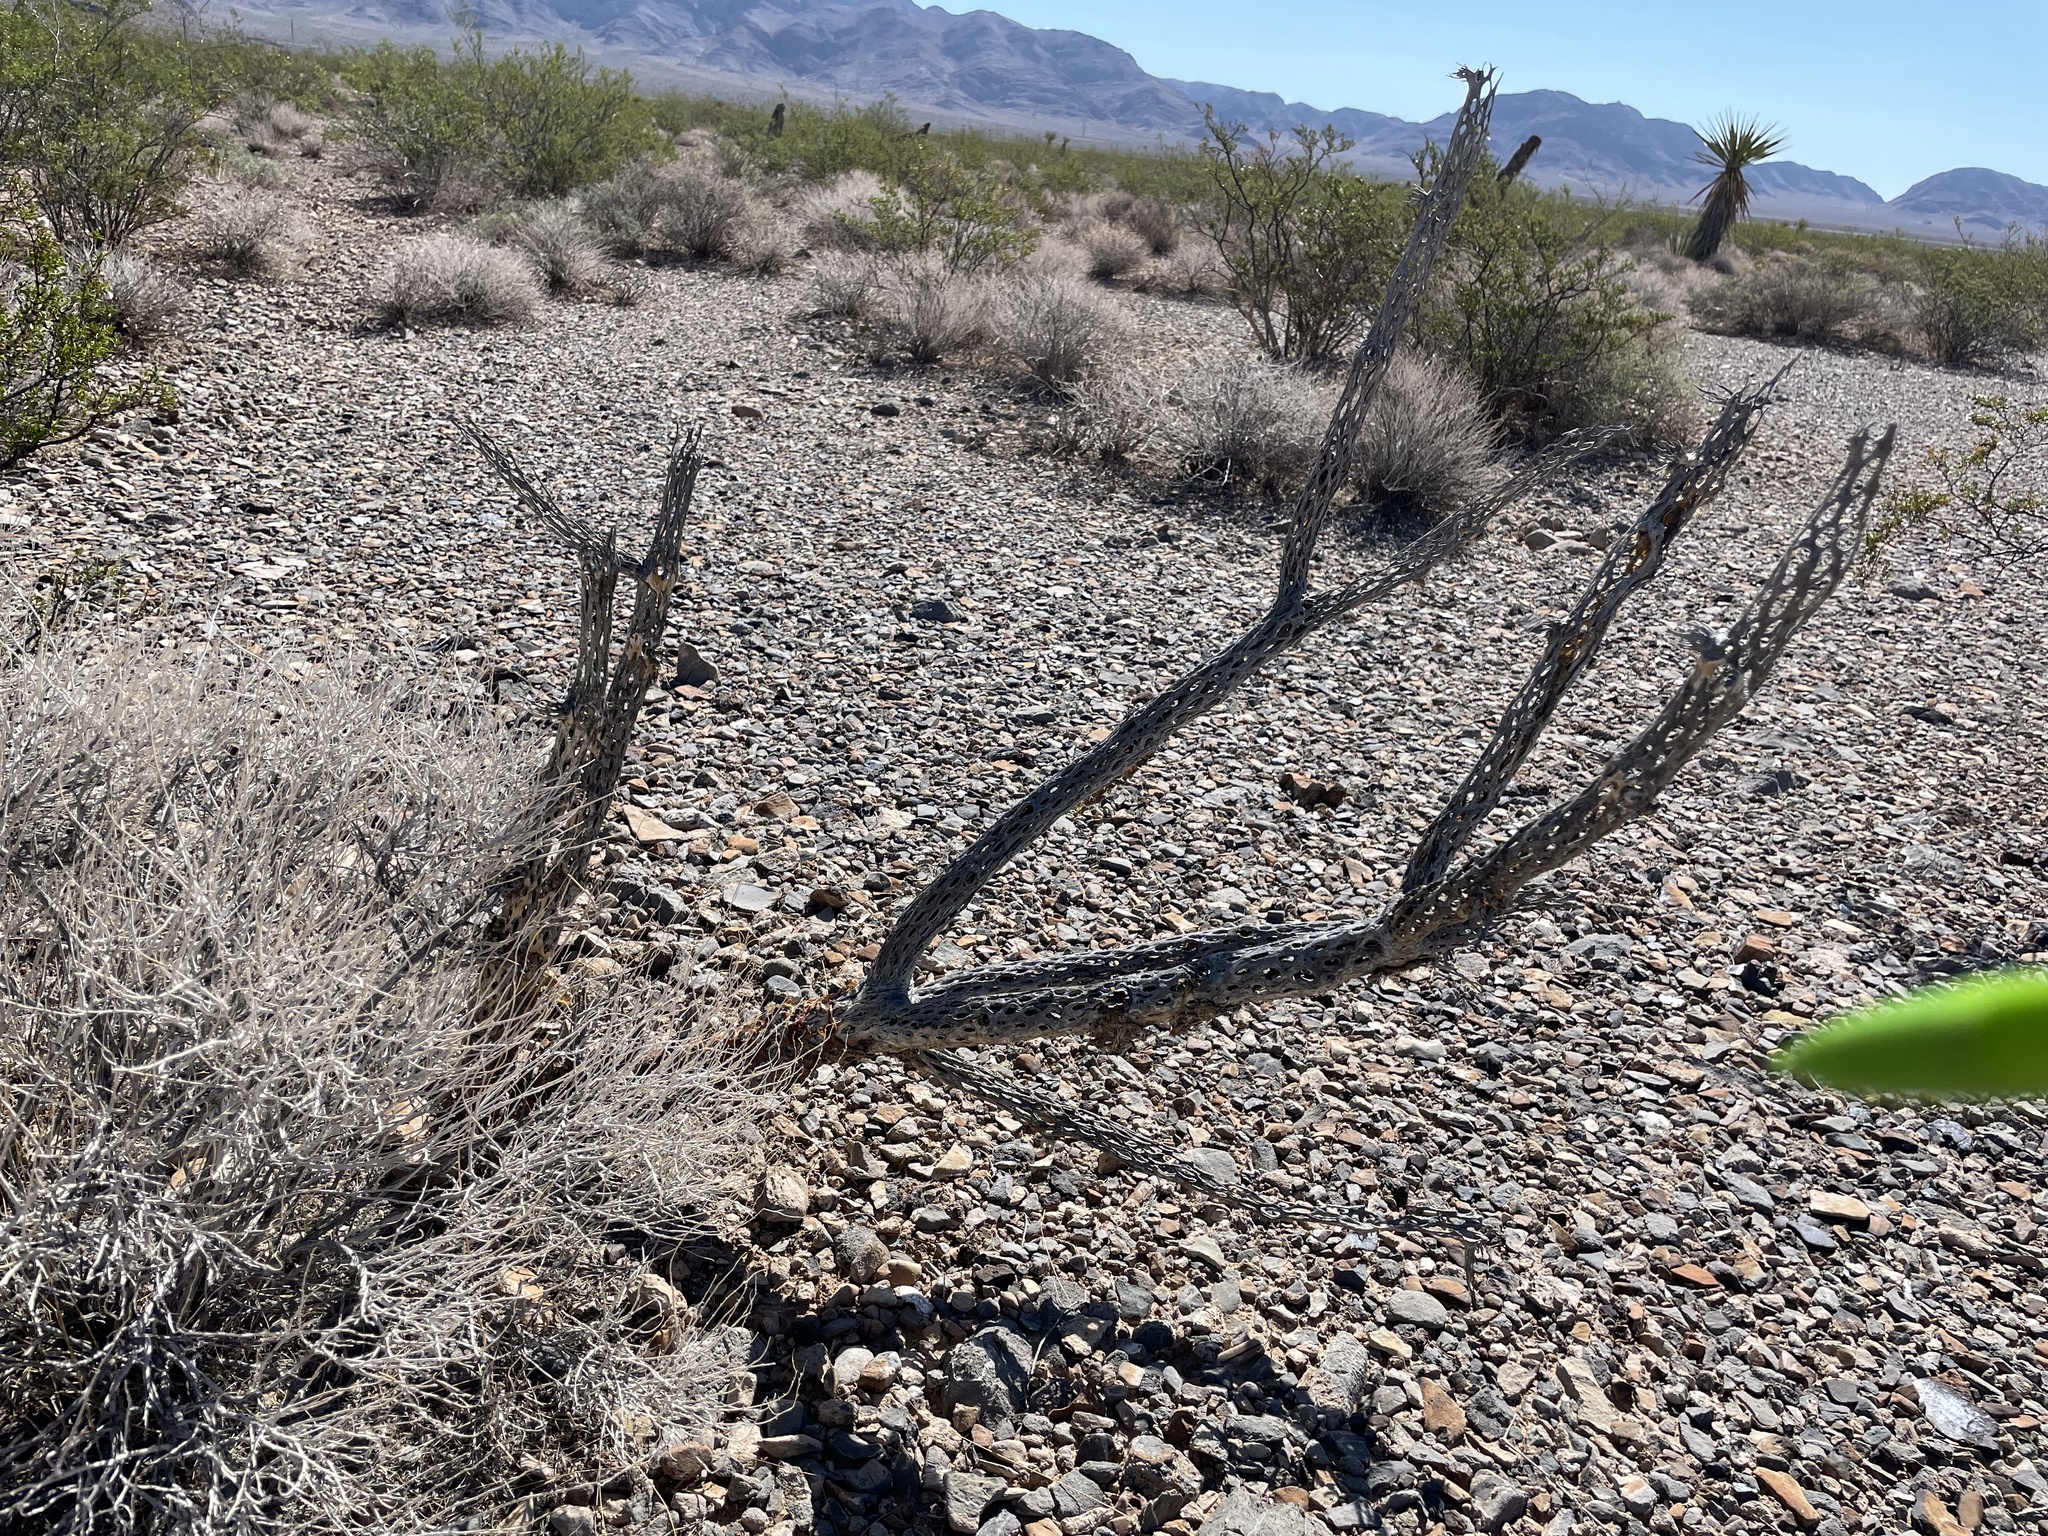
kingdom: Plantae
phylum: Tracheophyta
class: Magnoliopsida
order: Caryophyllales
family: Cactaceae
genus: Cylindropuntia
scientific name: Cylindropuntia acanthocarpa
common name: Buckhorn cholla
